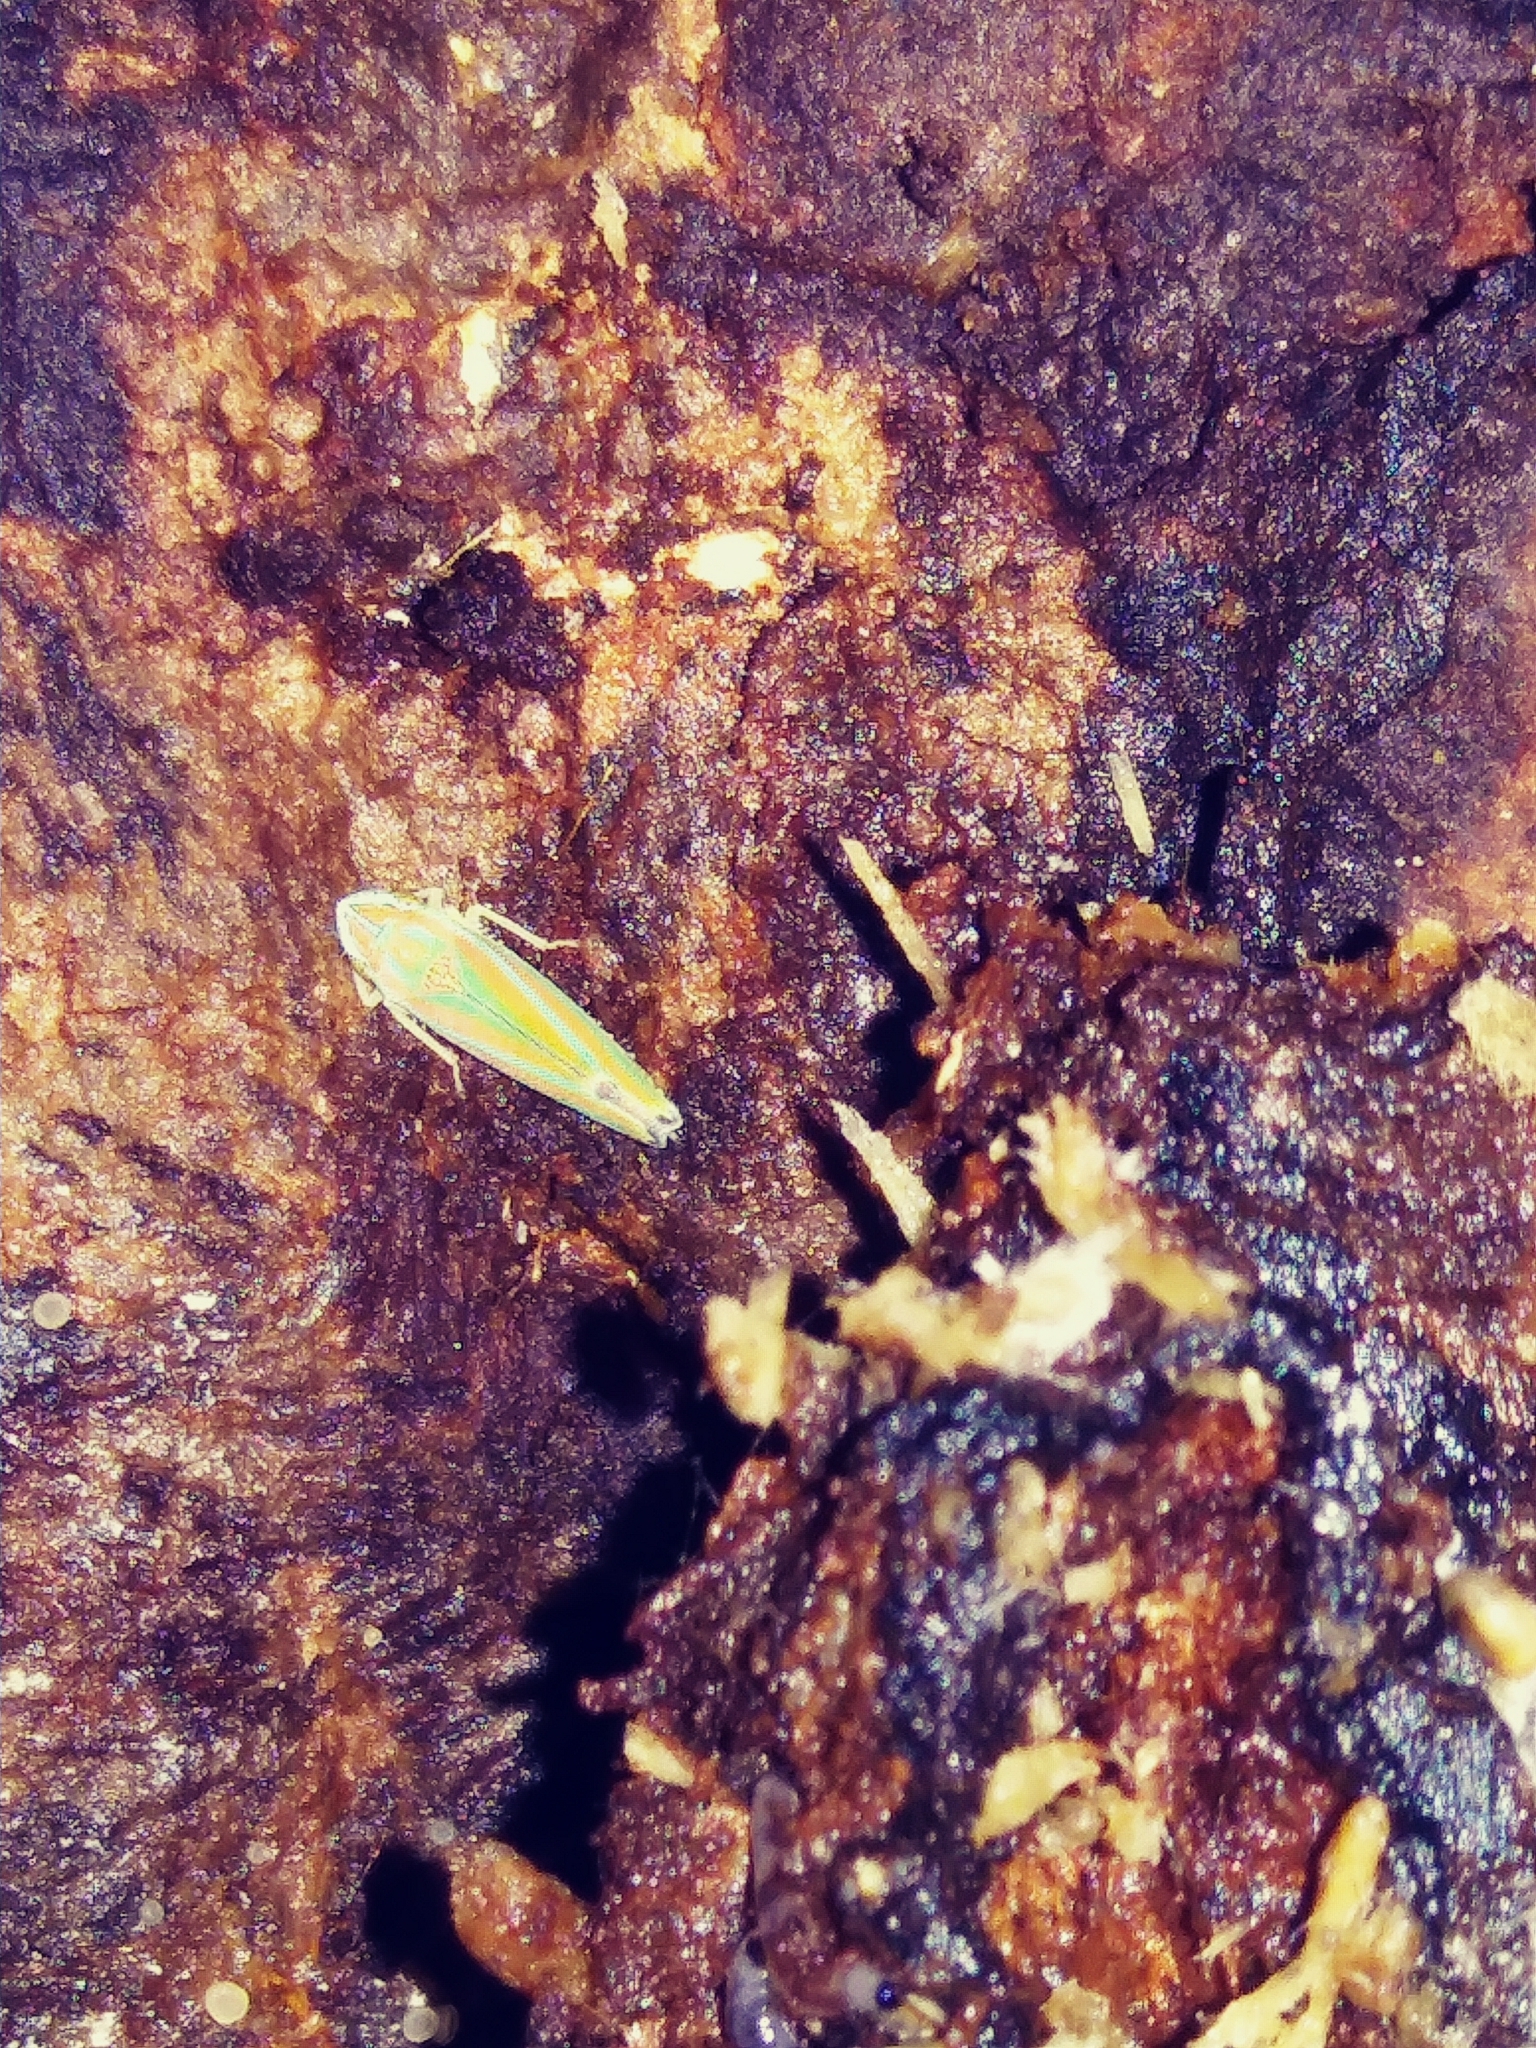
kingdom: Animalia
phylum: Arthropoda
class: Insecta
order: Hemiptera
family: Cicadellidae
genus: Graphocephala
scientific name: Graphocephala versuta
